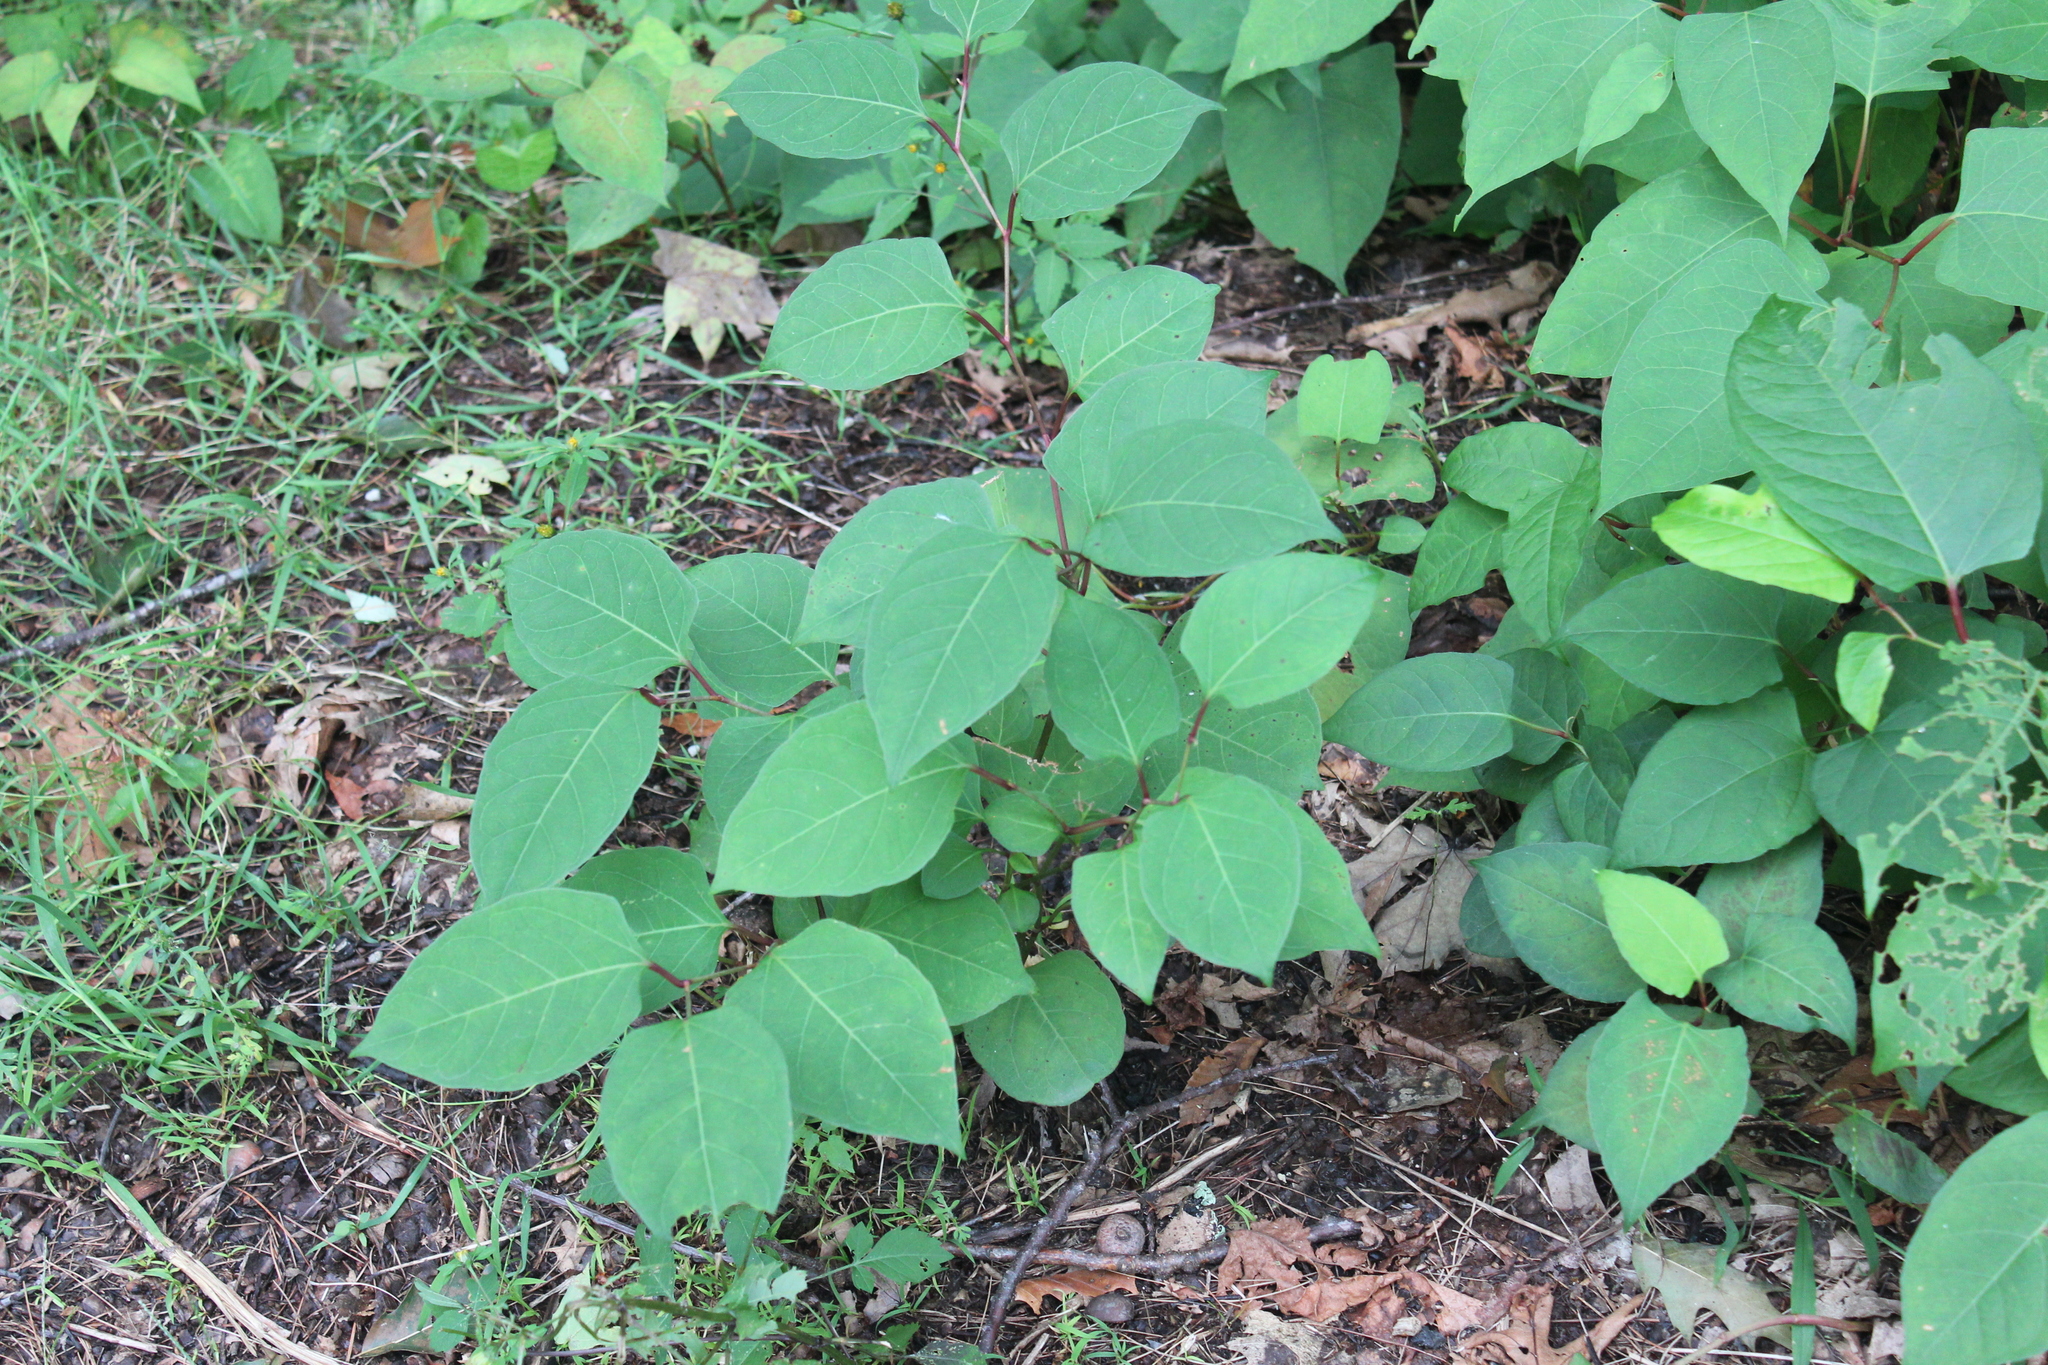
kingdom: Plantae
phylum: Tracheophyta
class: Magnoliopsida
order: Caryophyllales
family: Polygonaceae
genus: Reynoutria
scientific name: Reynoutria japonica
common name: Japanese knotweed
